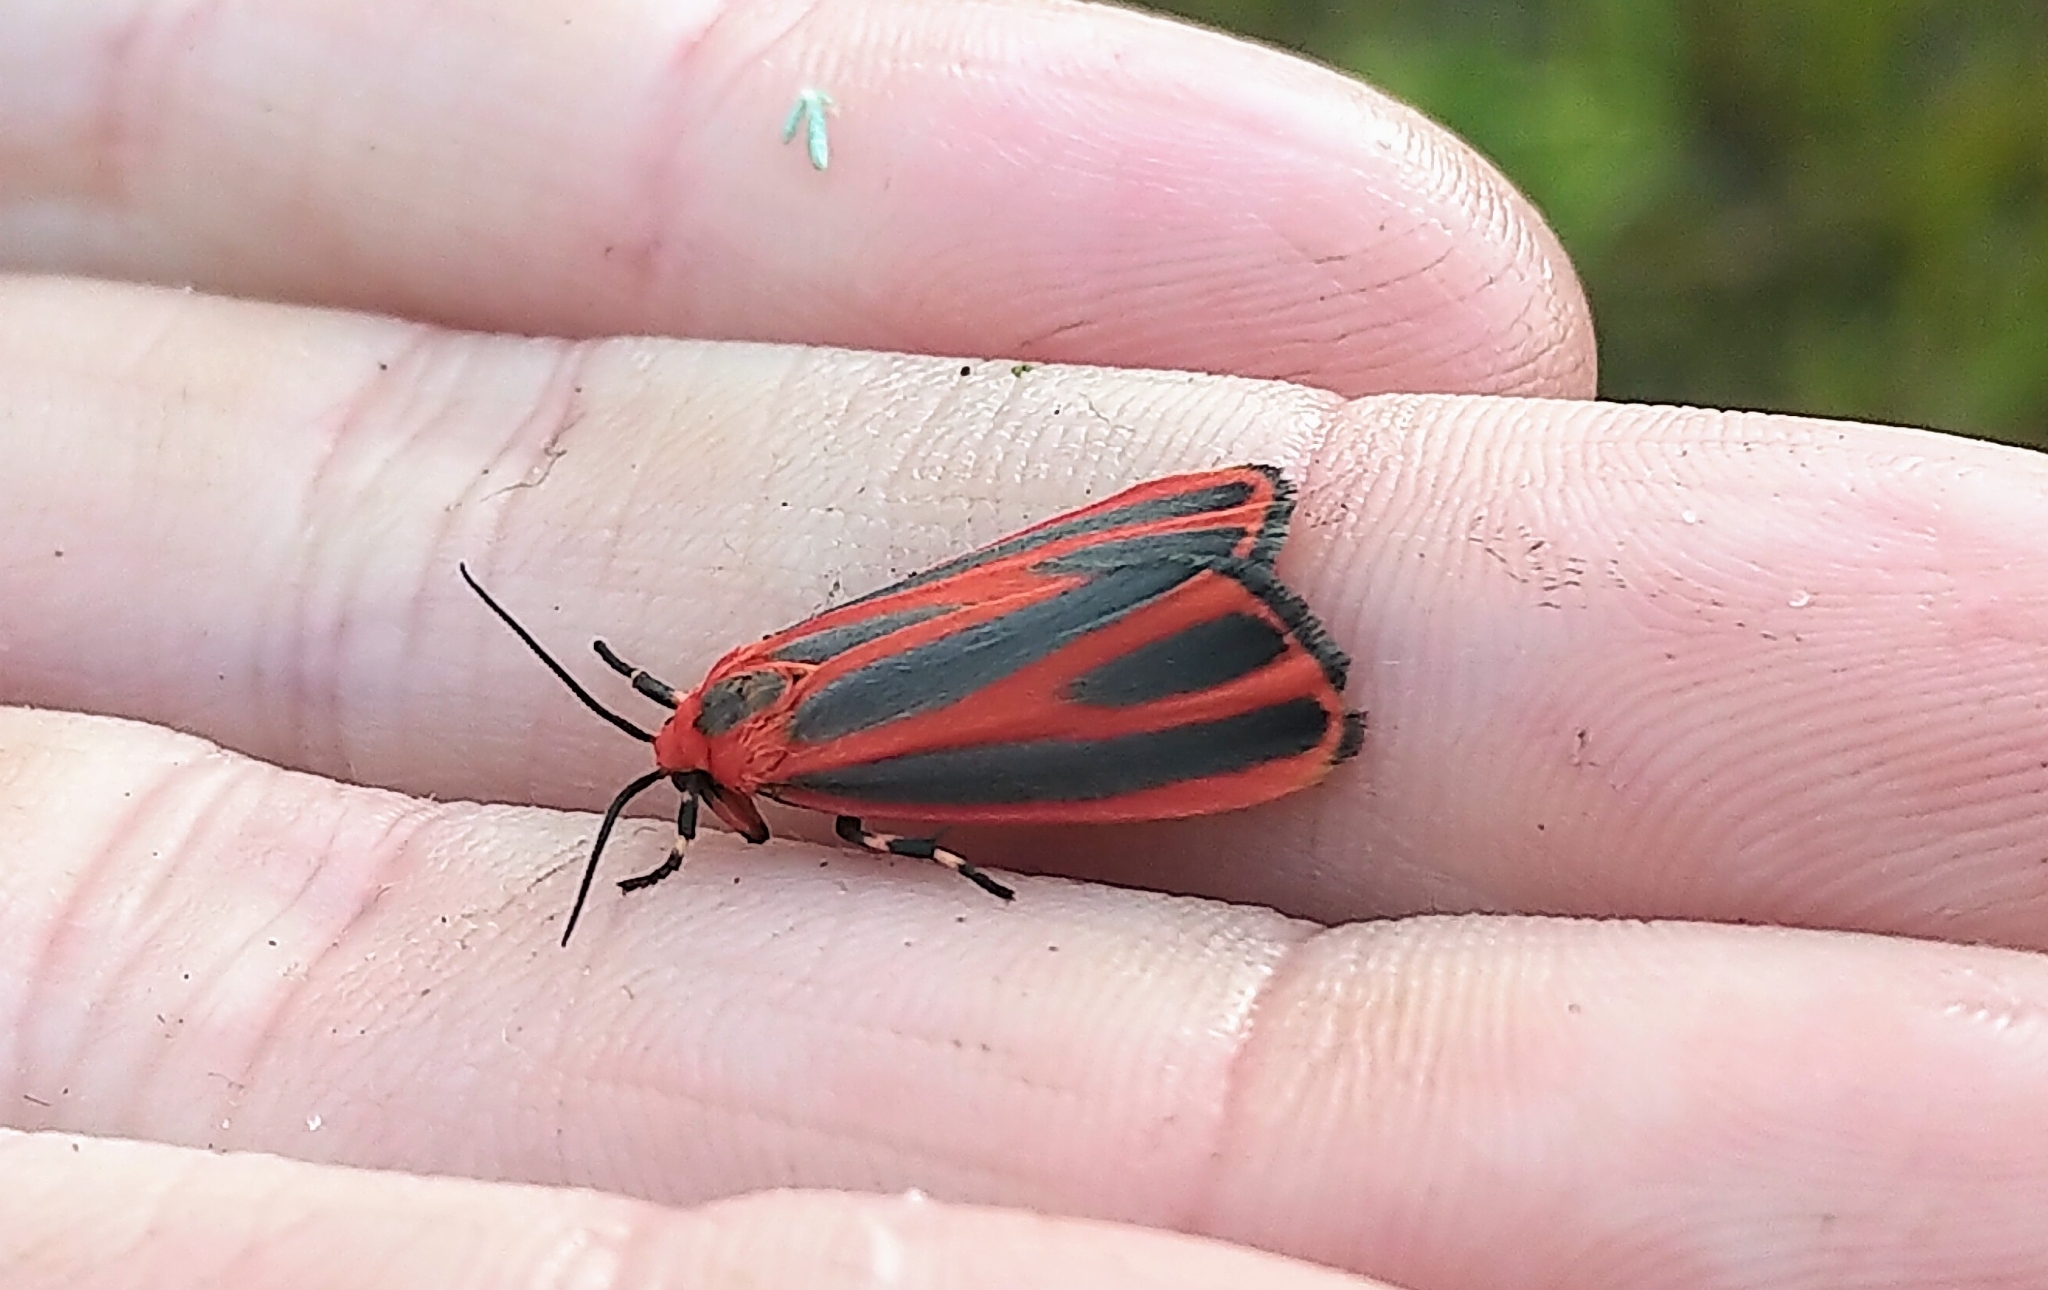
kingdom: Animalia
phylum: Arthropoda
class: Insecta
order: Lepidoptera
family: Erebidae
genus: Hypoprepia
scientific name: Hypoprepia miniata
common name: Scarlet-winged lichen moth
